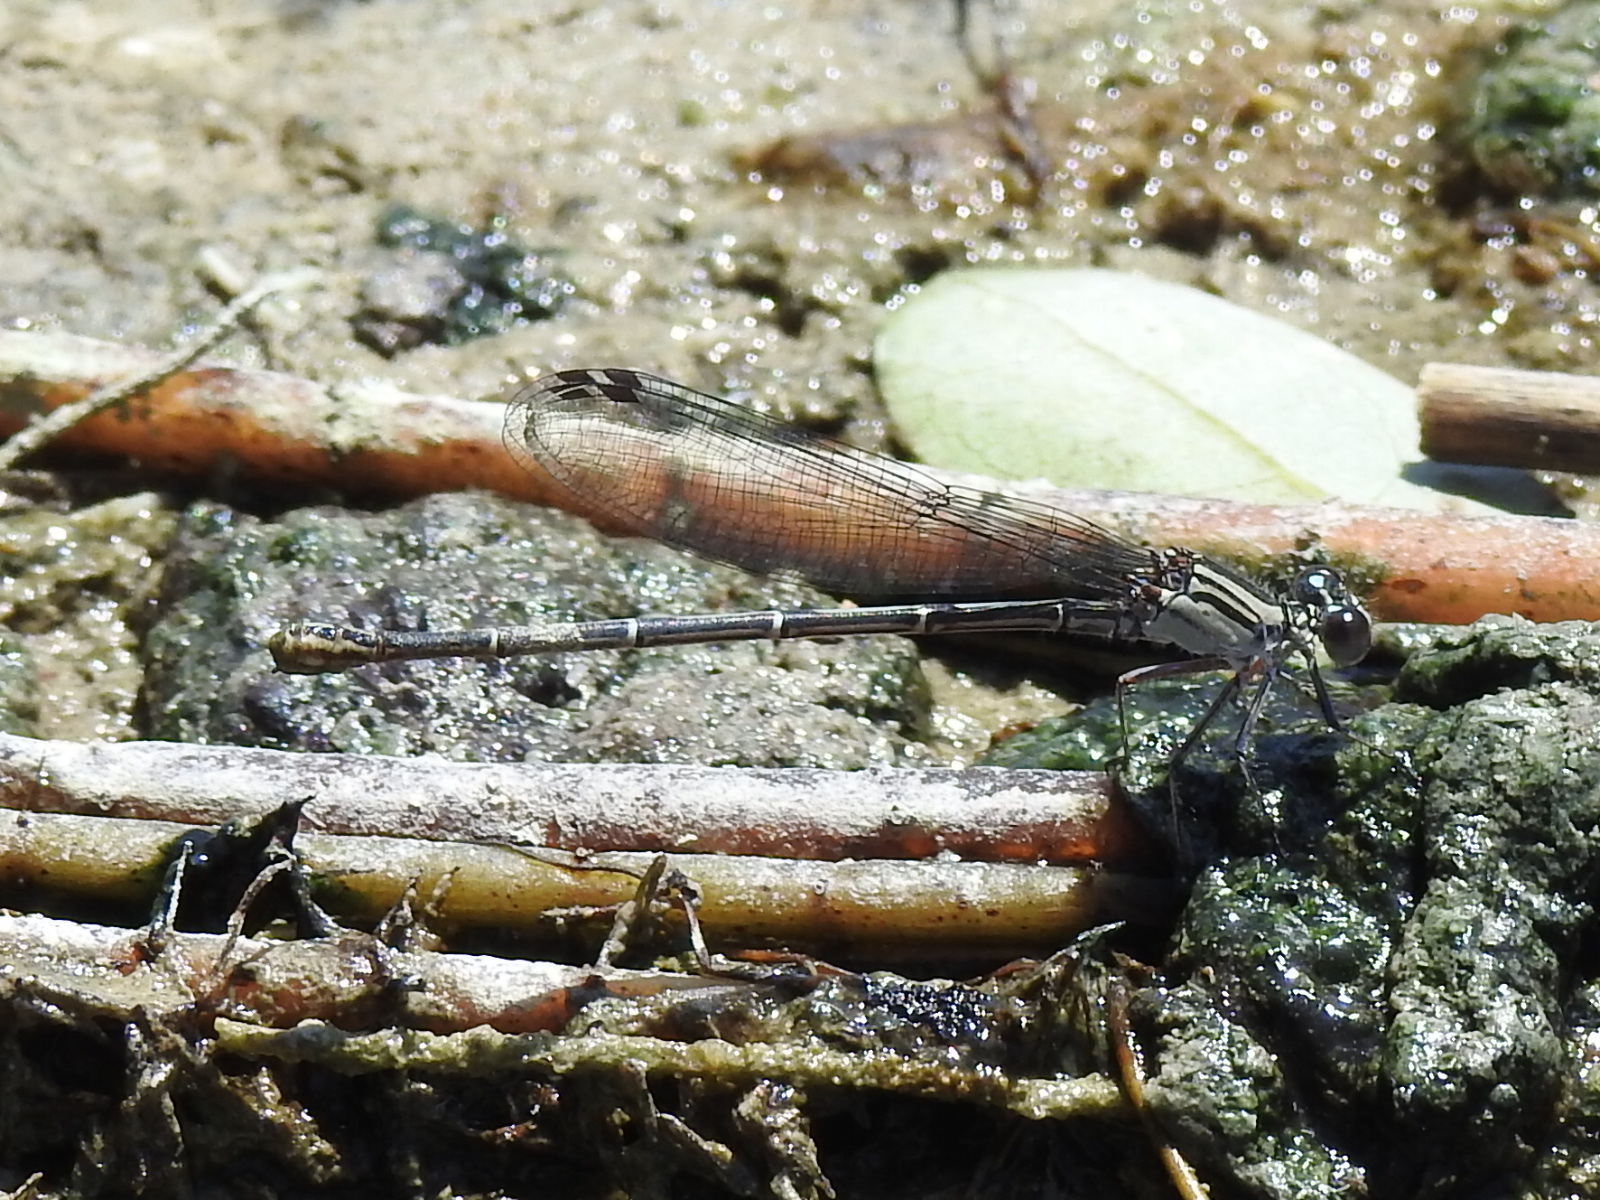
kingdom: Animalia
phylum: Arthropoda
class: Insecta
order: Odonata
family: Coenagrionidae
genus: Argia
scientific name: Argia translata
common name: Dusky dancer
